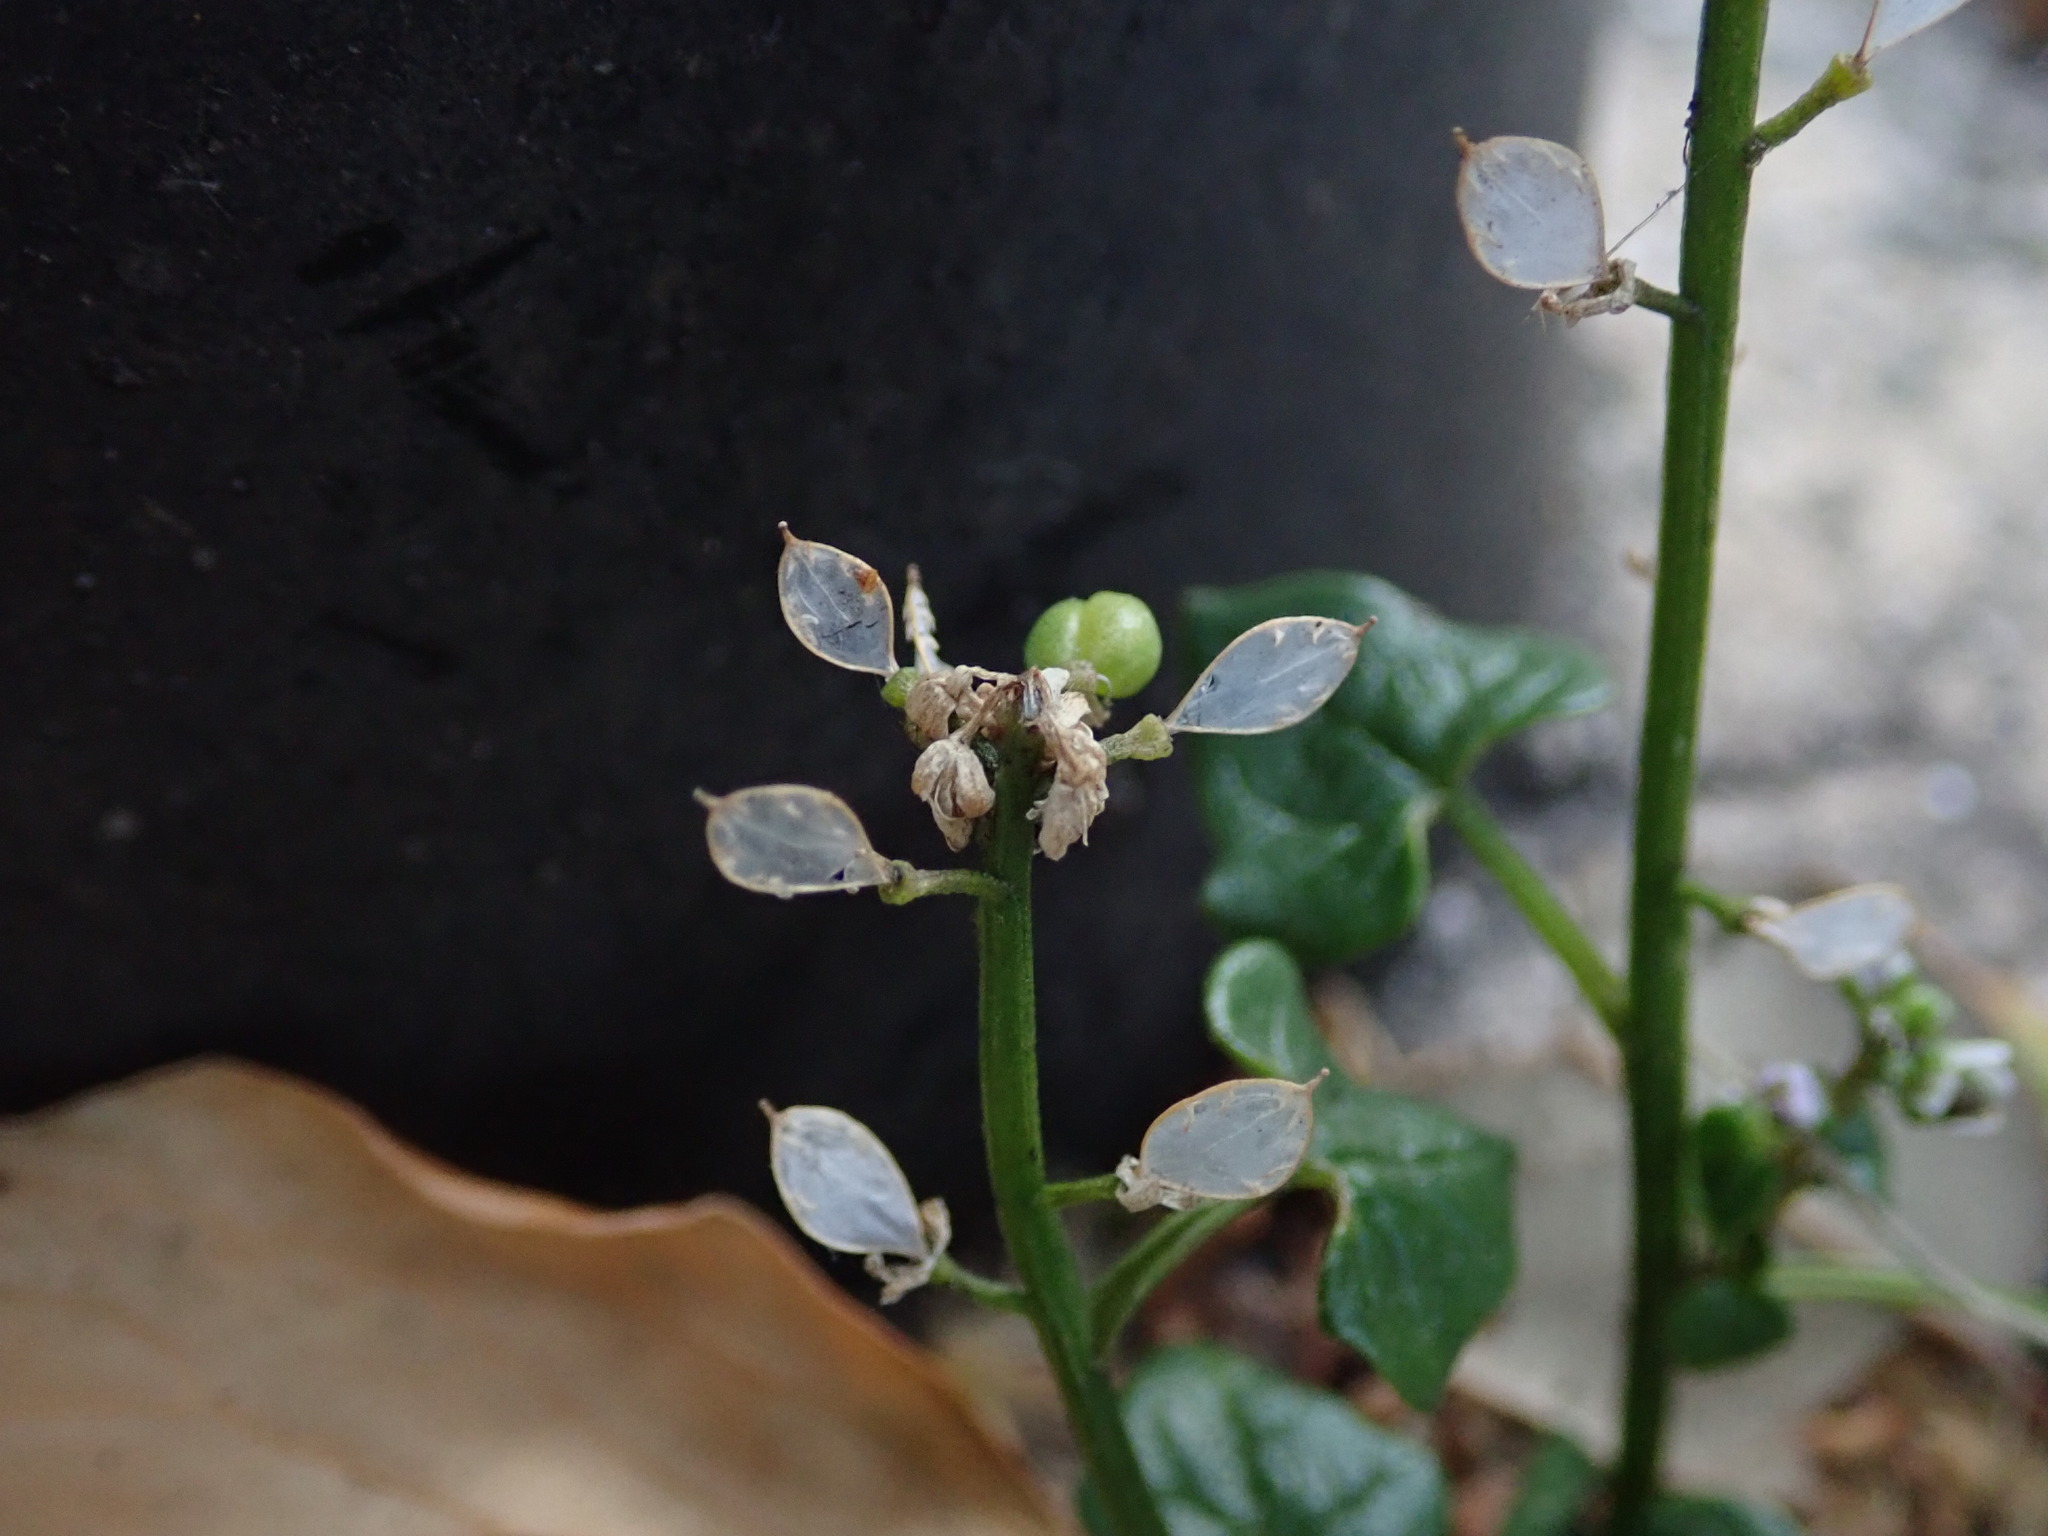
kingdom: Plantae
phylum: Tracheophyta
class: Magnoliopsida
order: Brassicales
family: Brassicaceae
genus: Cochlearia
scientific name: Cochlearia danica
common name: Early scurvygrass
